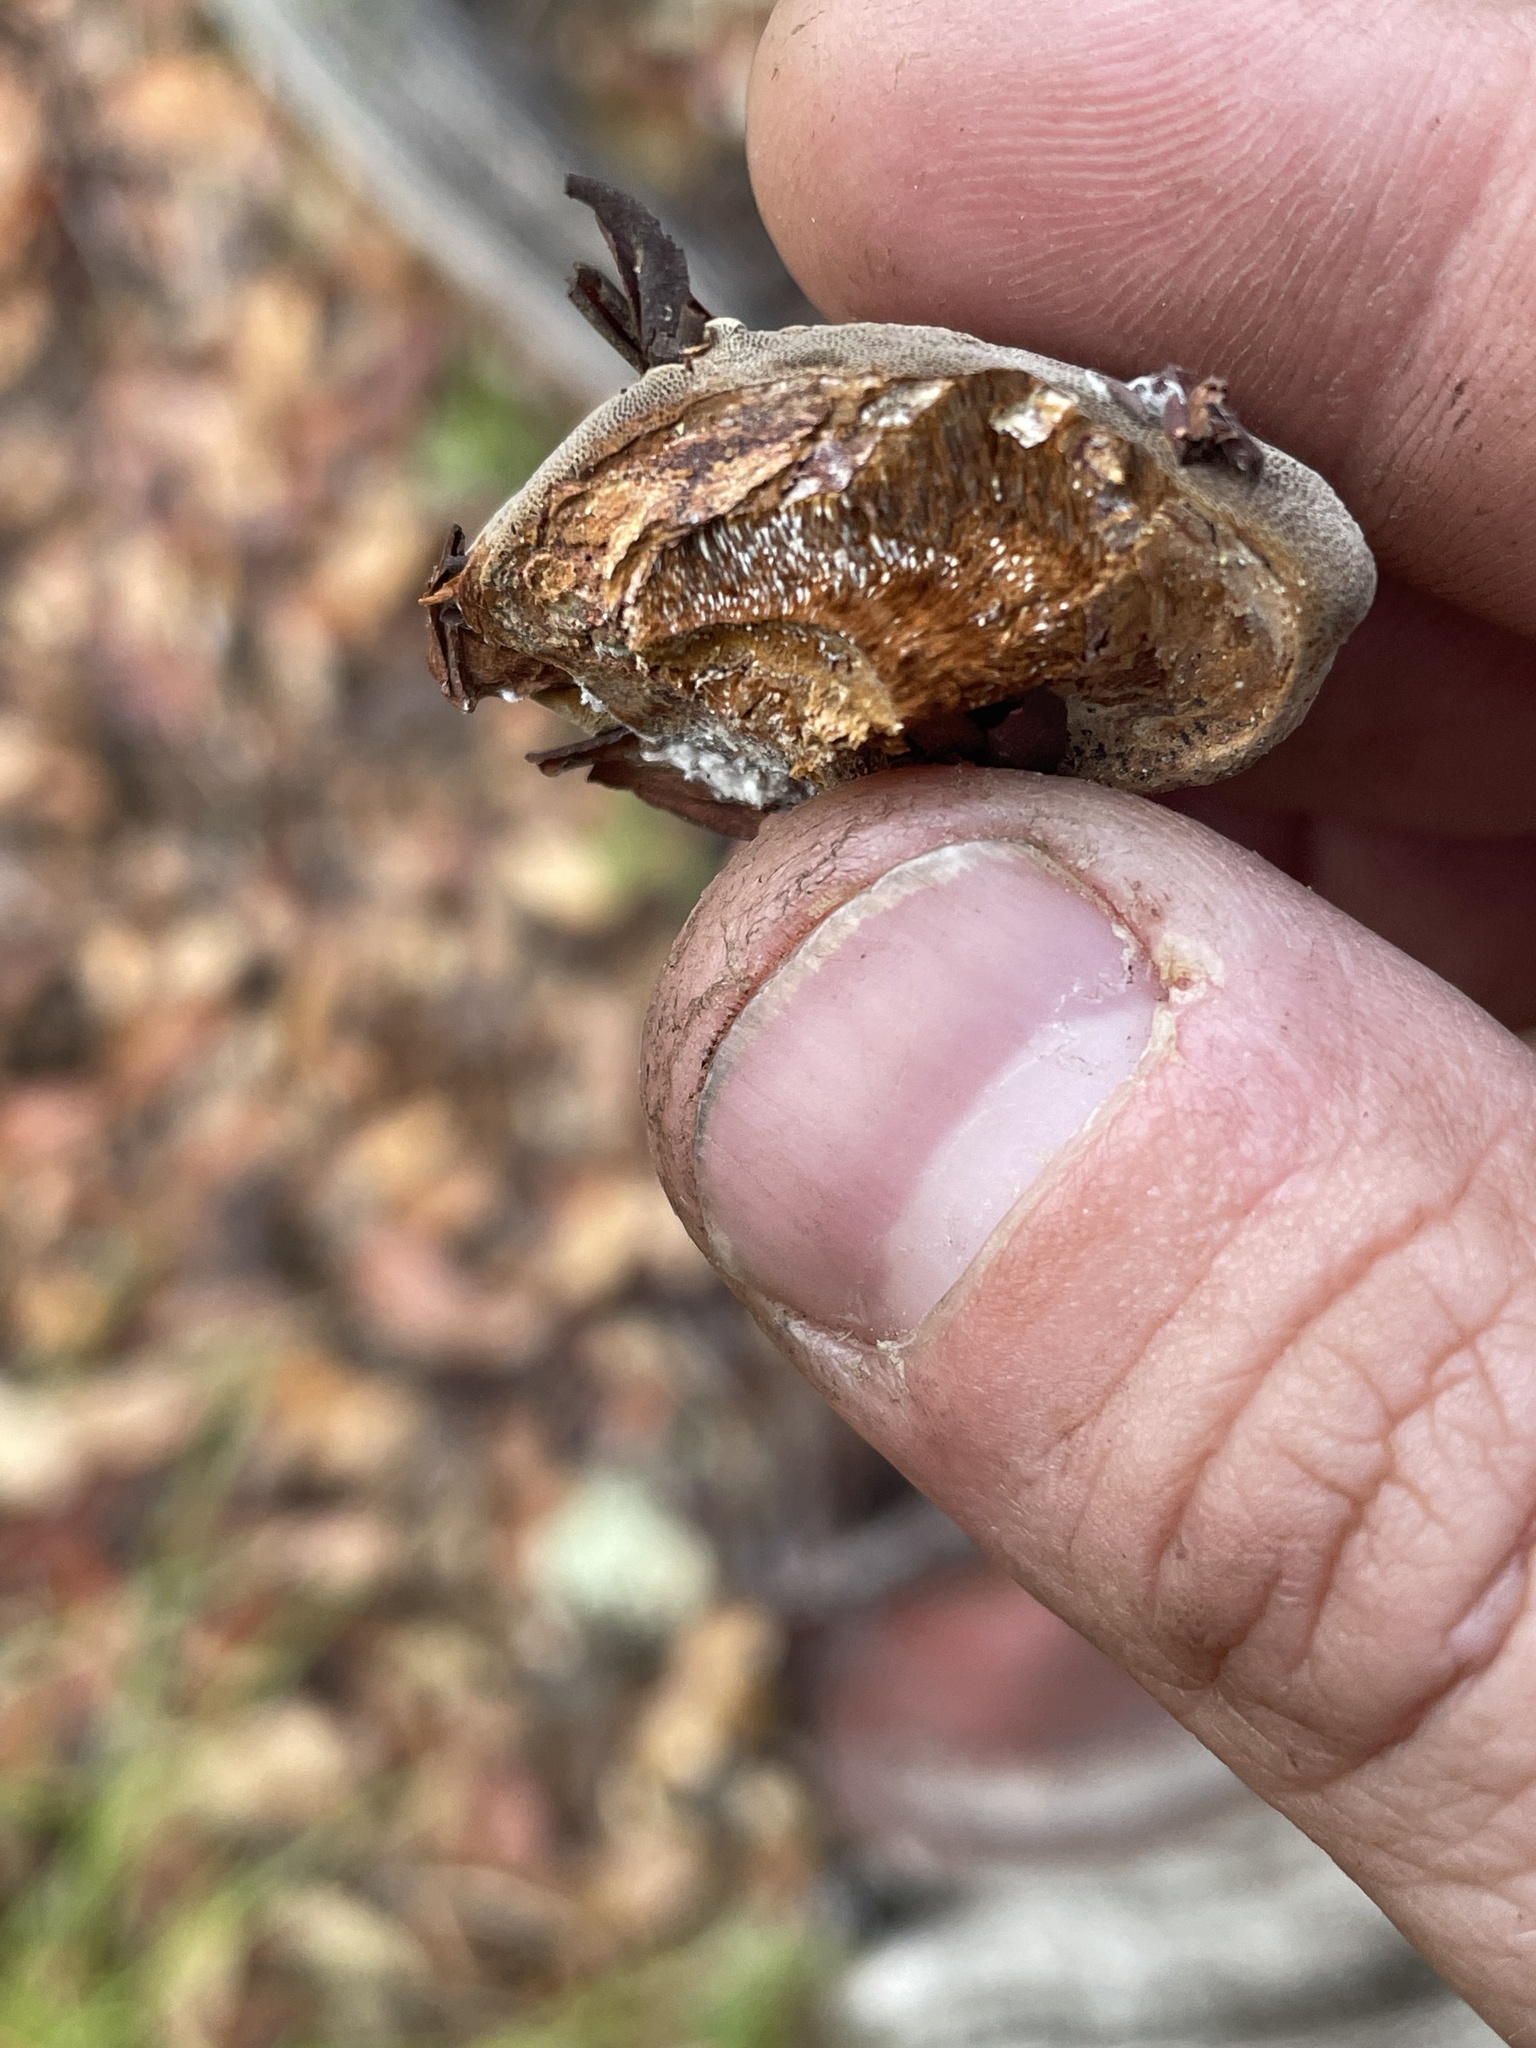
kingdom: Fungi
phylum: Basidiomycota
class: Agaricomycetes
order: Polyporales
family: Polyporaceae
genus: Fomes
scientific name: Fomes arctostaphyli
